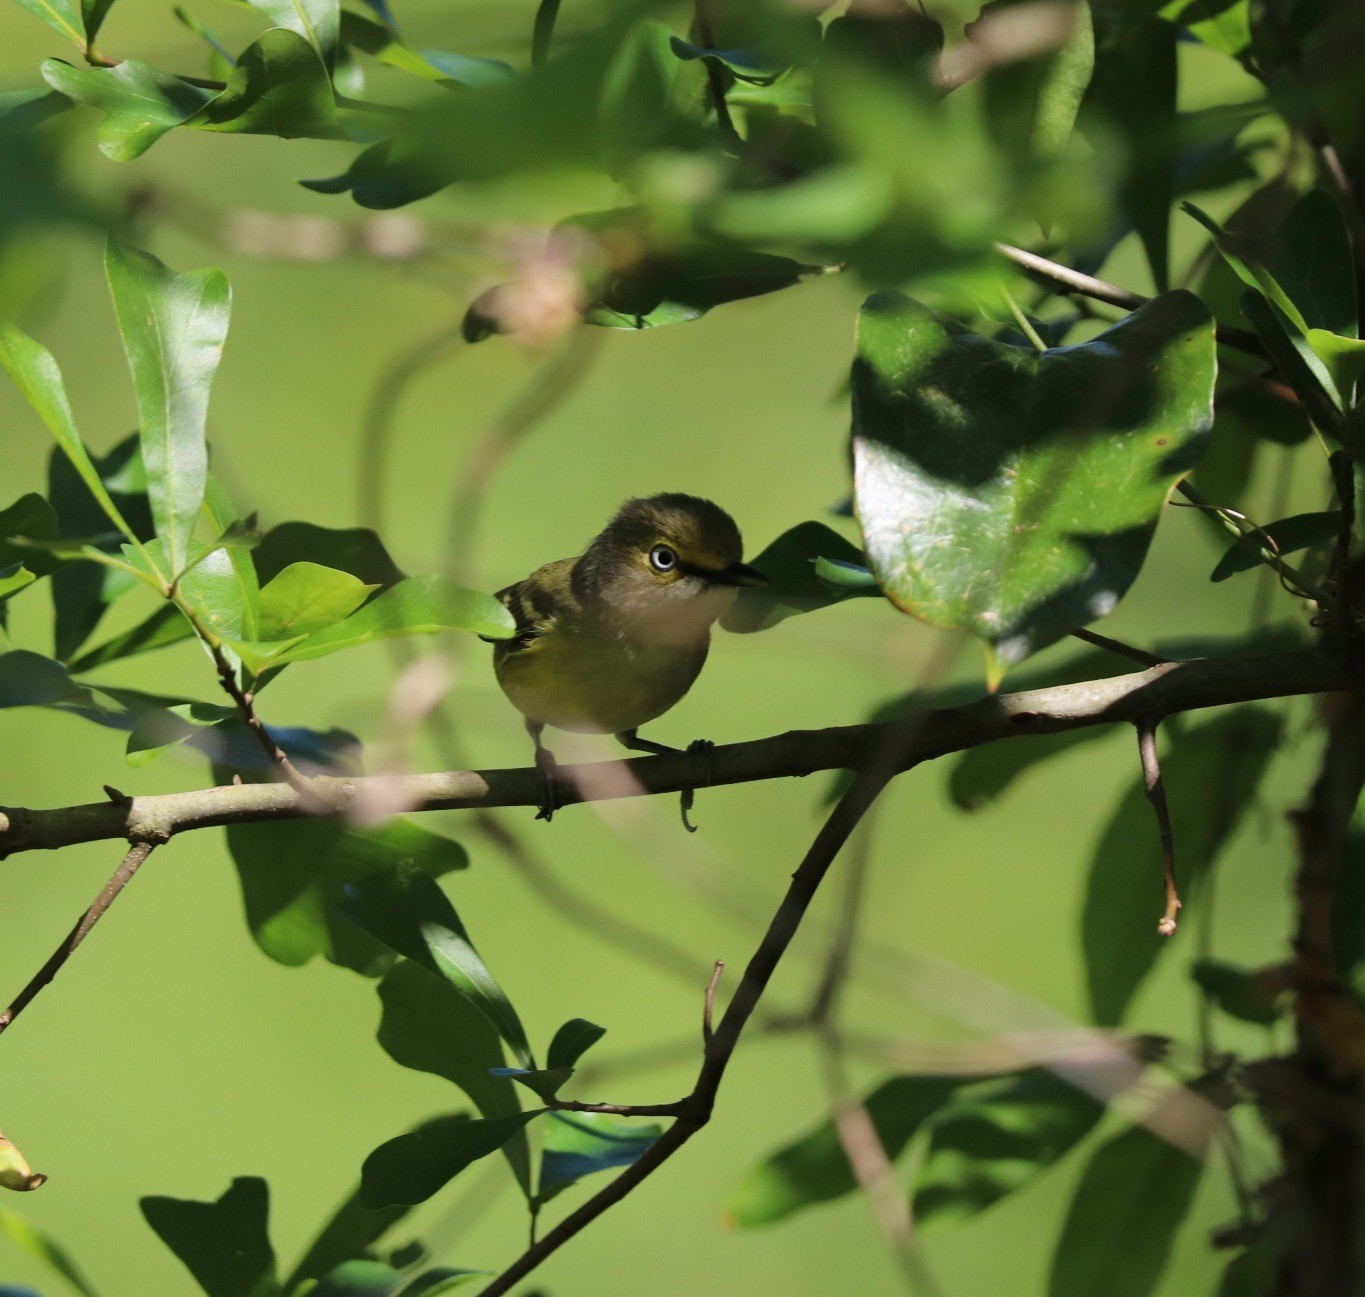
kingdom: Animalia
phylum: Chordata
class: Aves
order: Passeriformes
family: Vireonidae
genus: Vireo
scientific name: Vireo griseus
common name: White-eyed vireo
